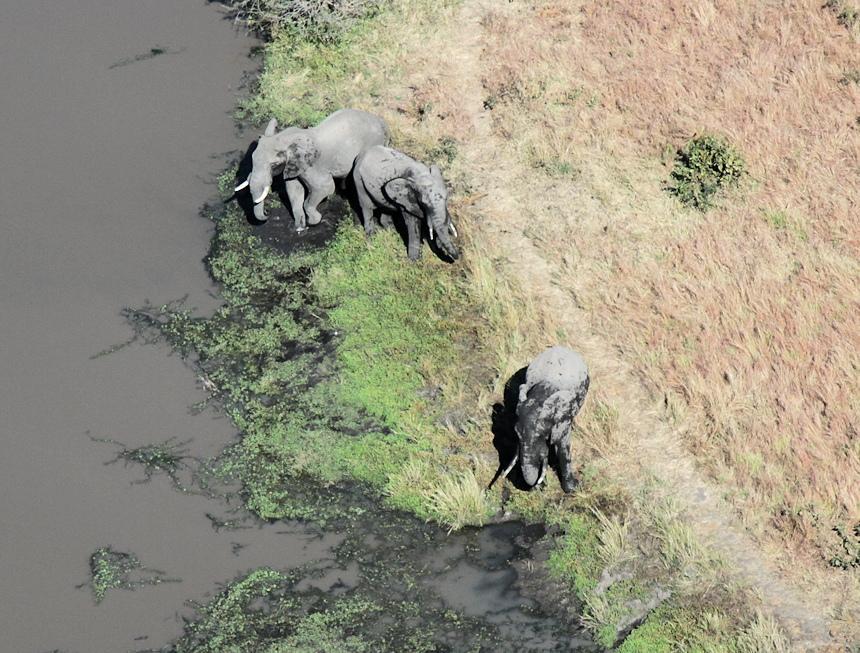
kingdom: Animalia
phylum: Chordata
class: Mammalia
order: Proboscidea
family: Elephantidae
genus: Loxodonta
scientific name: Loxodonta africana
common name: African elephant
